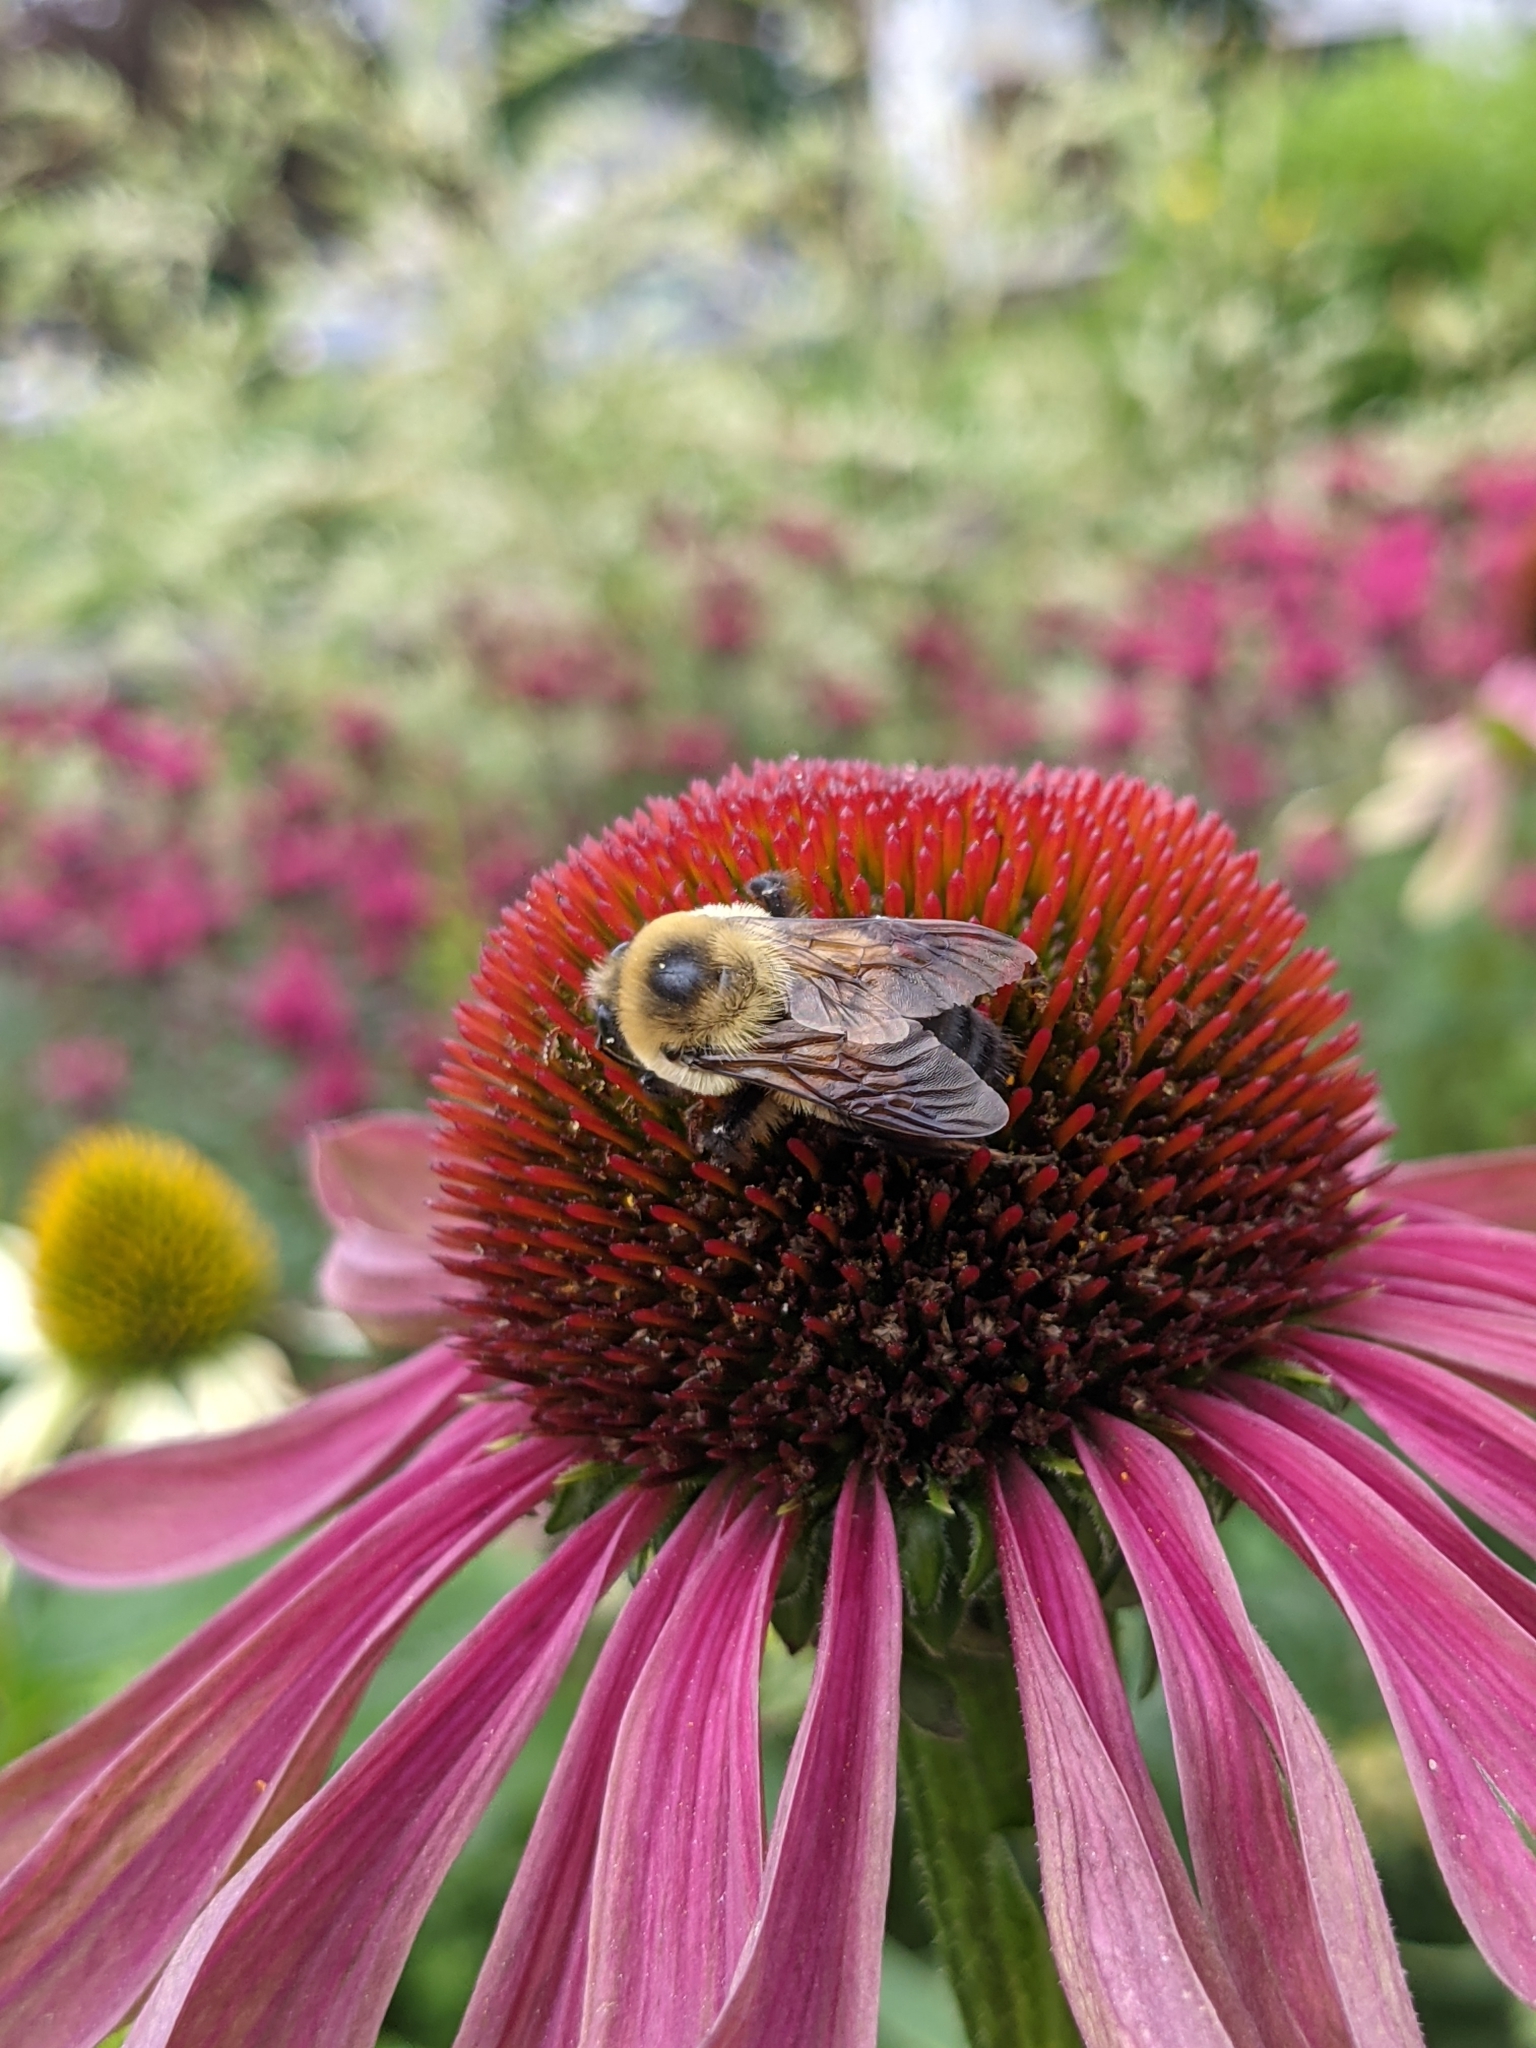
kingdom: Animalia
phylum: Arthropoda
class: Insecta
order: Hymenoptera
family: Apidae
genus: Bombus
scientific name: Bombus griseocollis
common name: Brown-belted bumble bee
